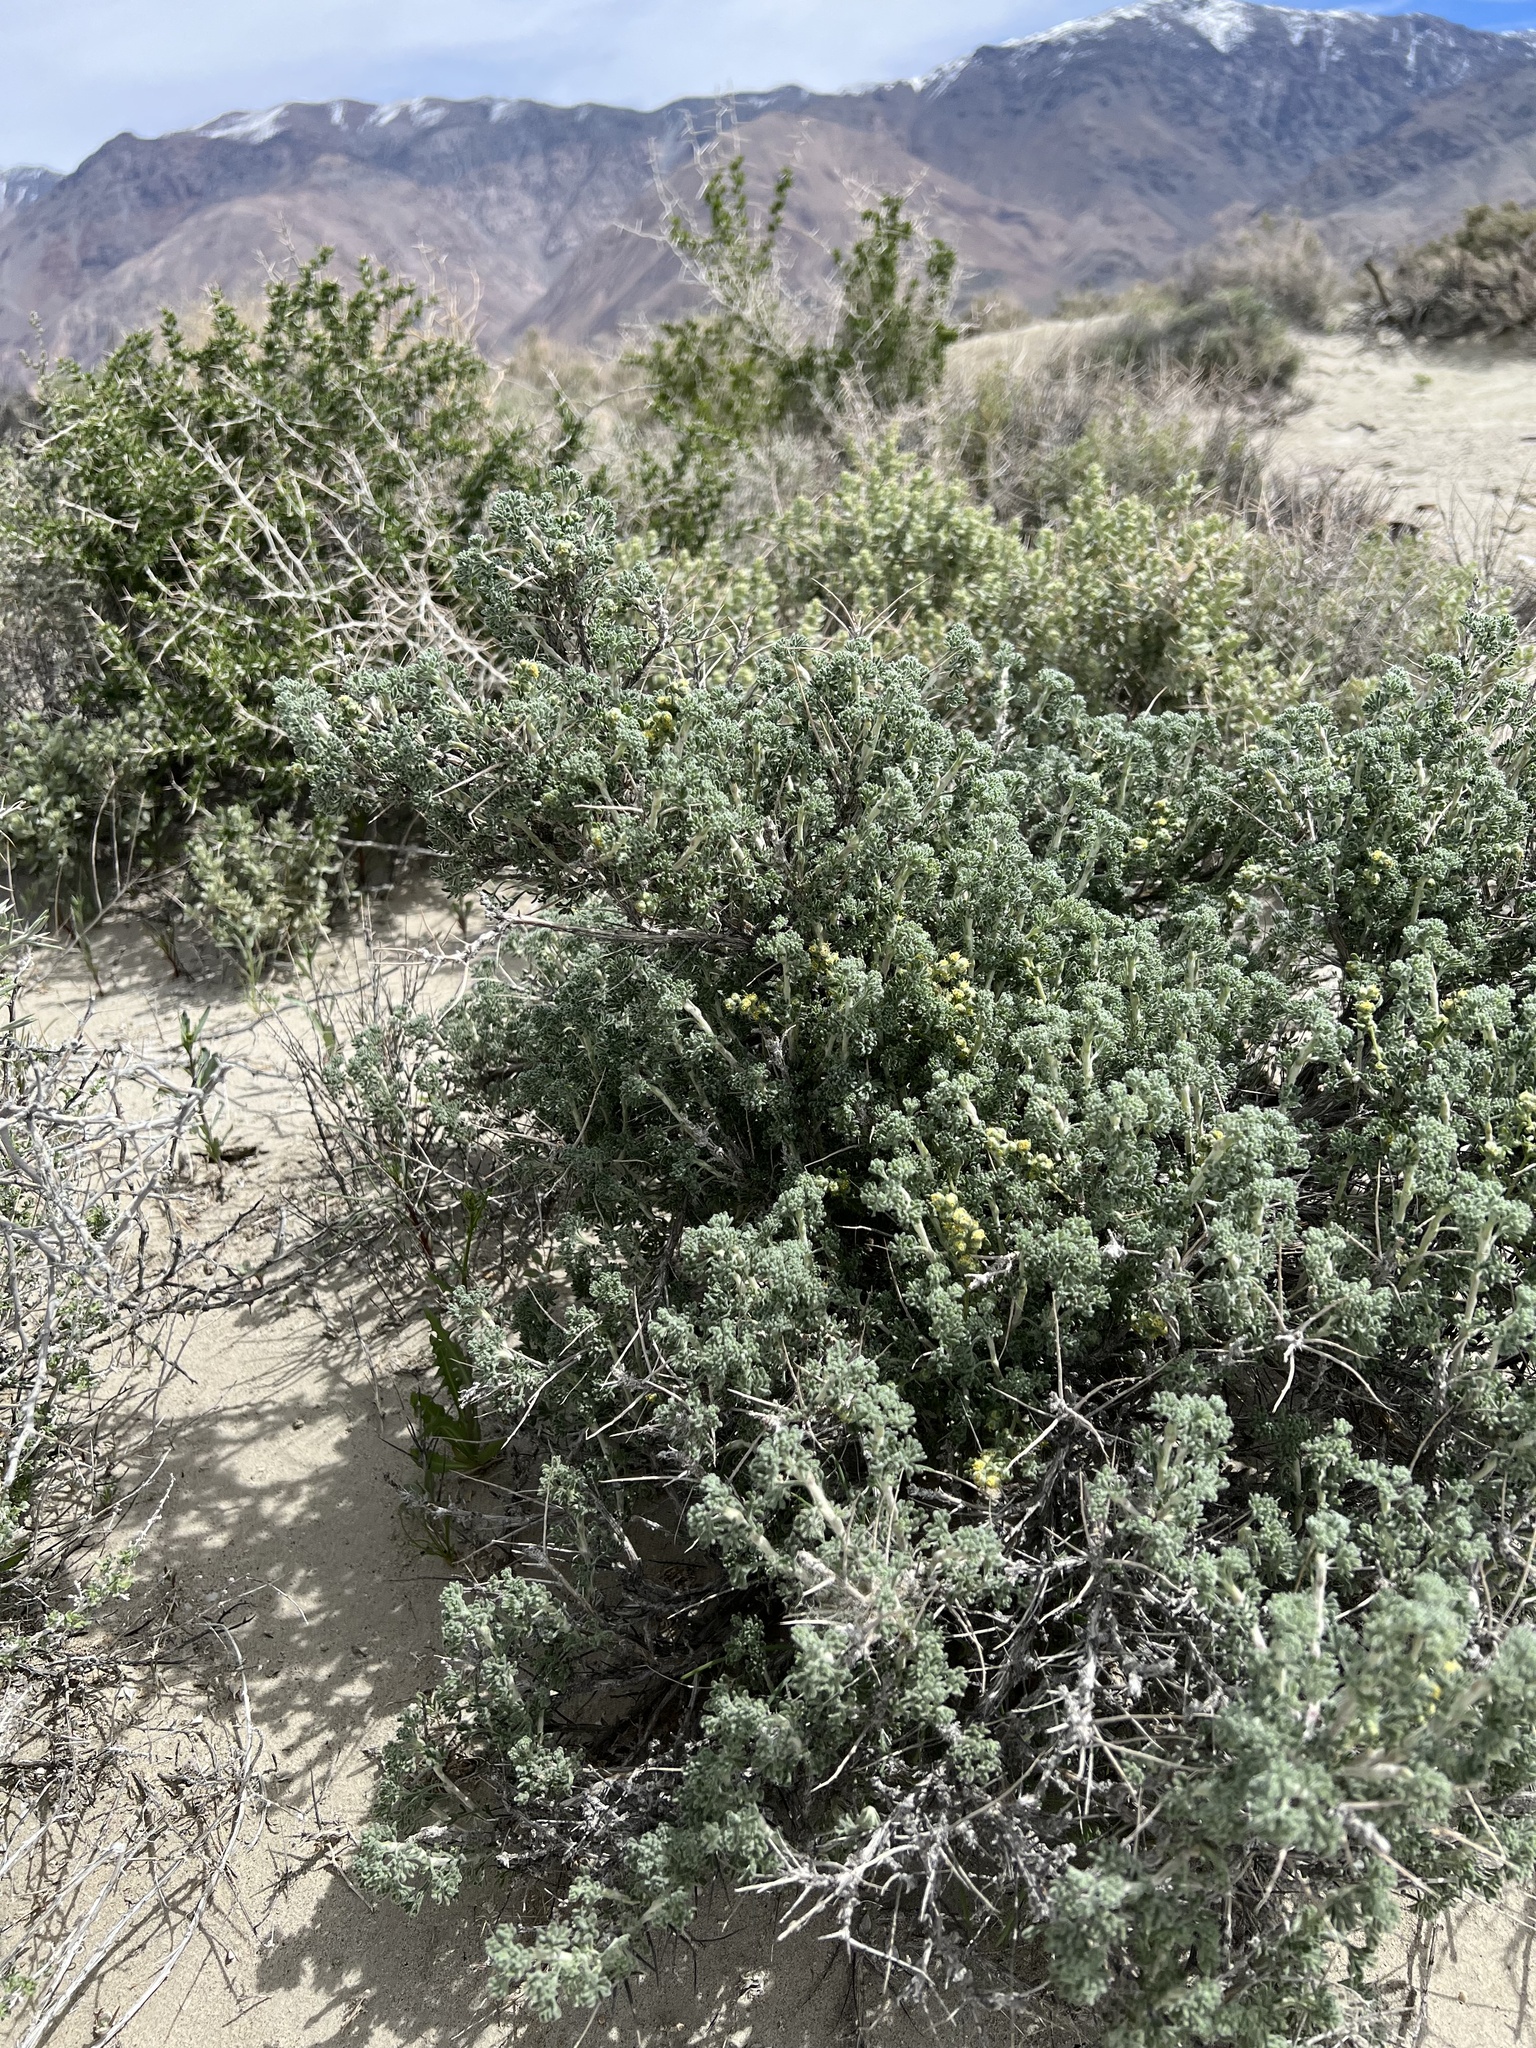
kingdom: Plantae
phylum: Tracheophyta
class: Magnoliopsida
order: Asterales
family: Asteraceae
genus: Artemisia
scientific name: Artemisia spinescens
